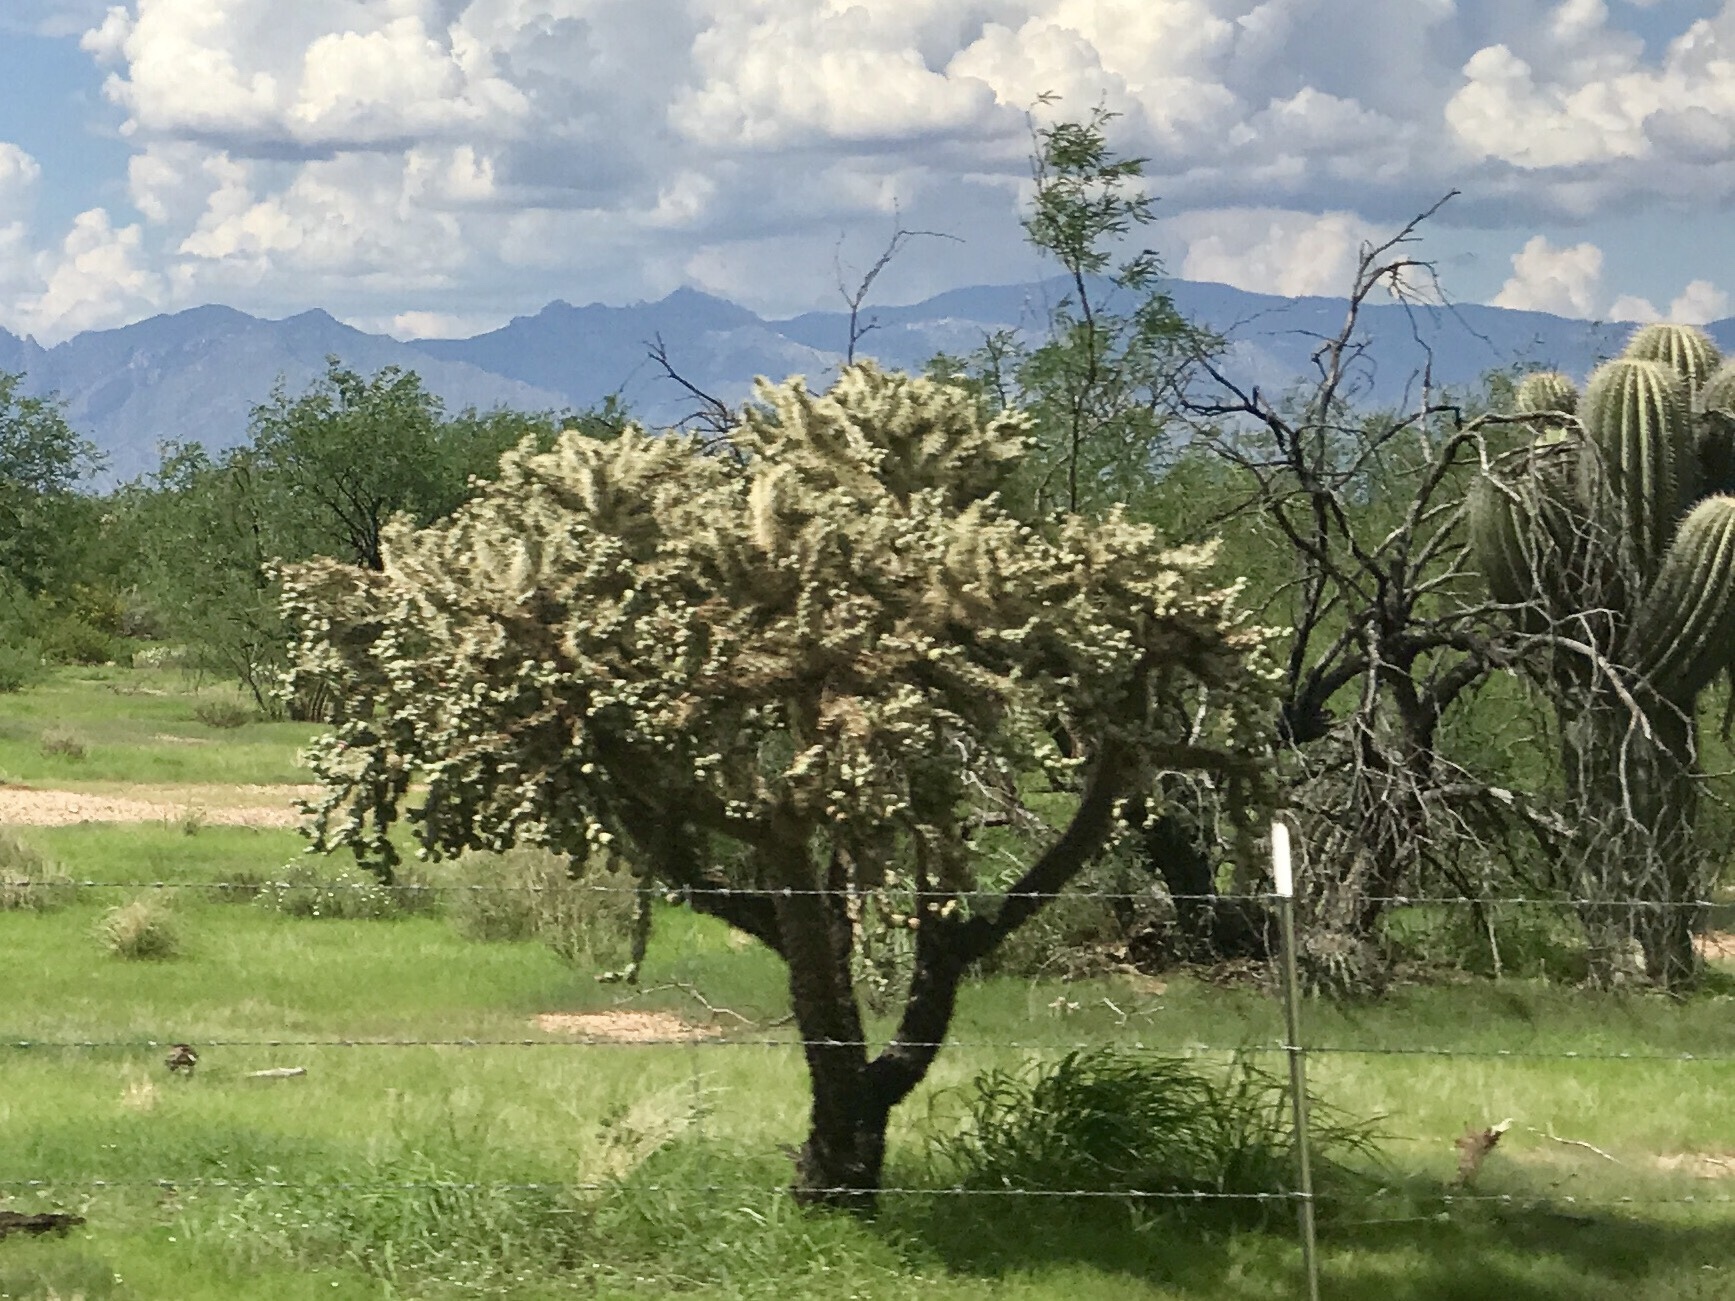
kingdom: Plantae
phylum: Tracheophyta
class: Magnoliopsida
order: Caryophyllales
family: Cactaceae
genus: Cylindropuntia
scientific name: Cylindropuntia fulgida
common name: Jumping cholla
